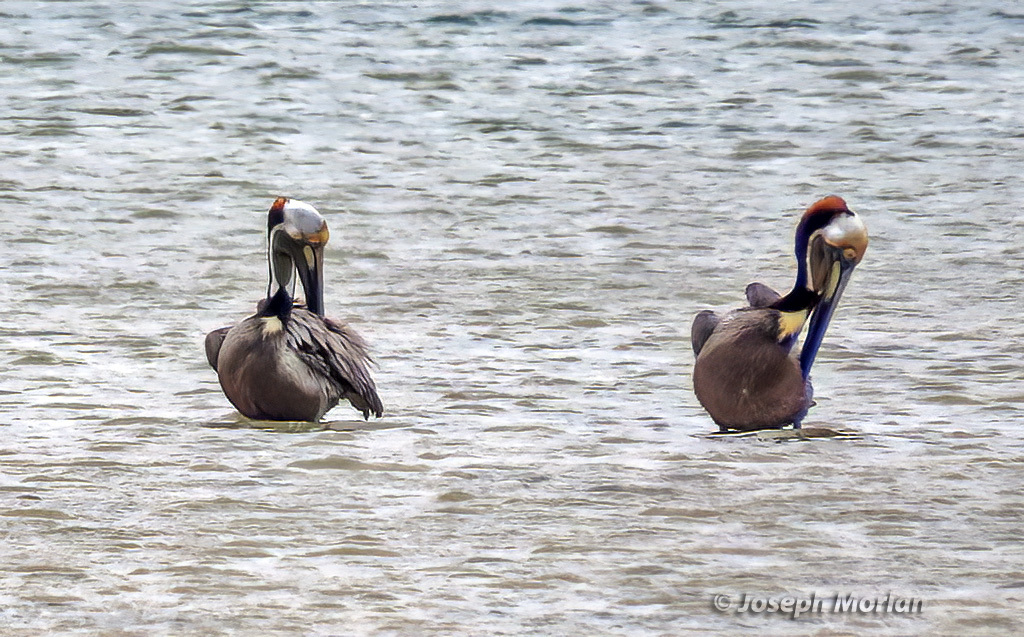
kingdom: Animalia
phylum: Chordata
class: Aves
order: Pelecaniformes
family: Pelecanidae
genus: Pelecanus
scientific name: Pelecanus occidentalis
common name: Brown pelican
